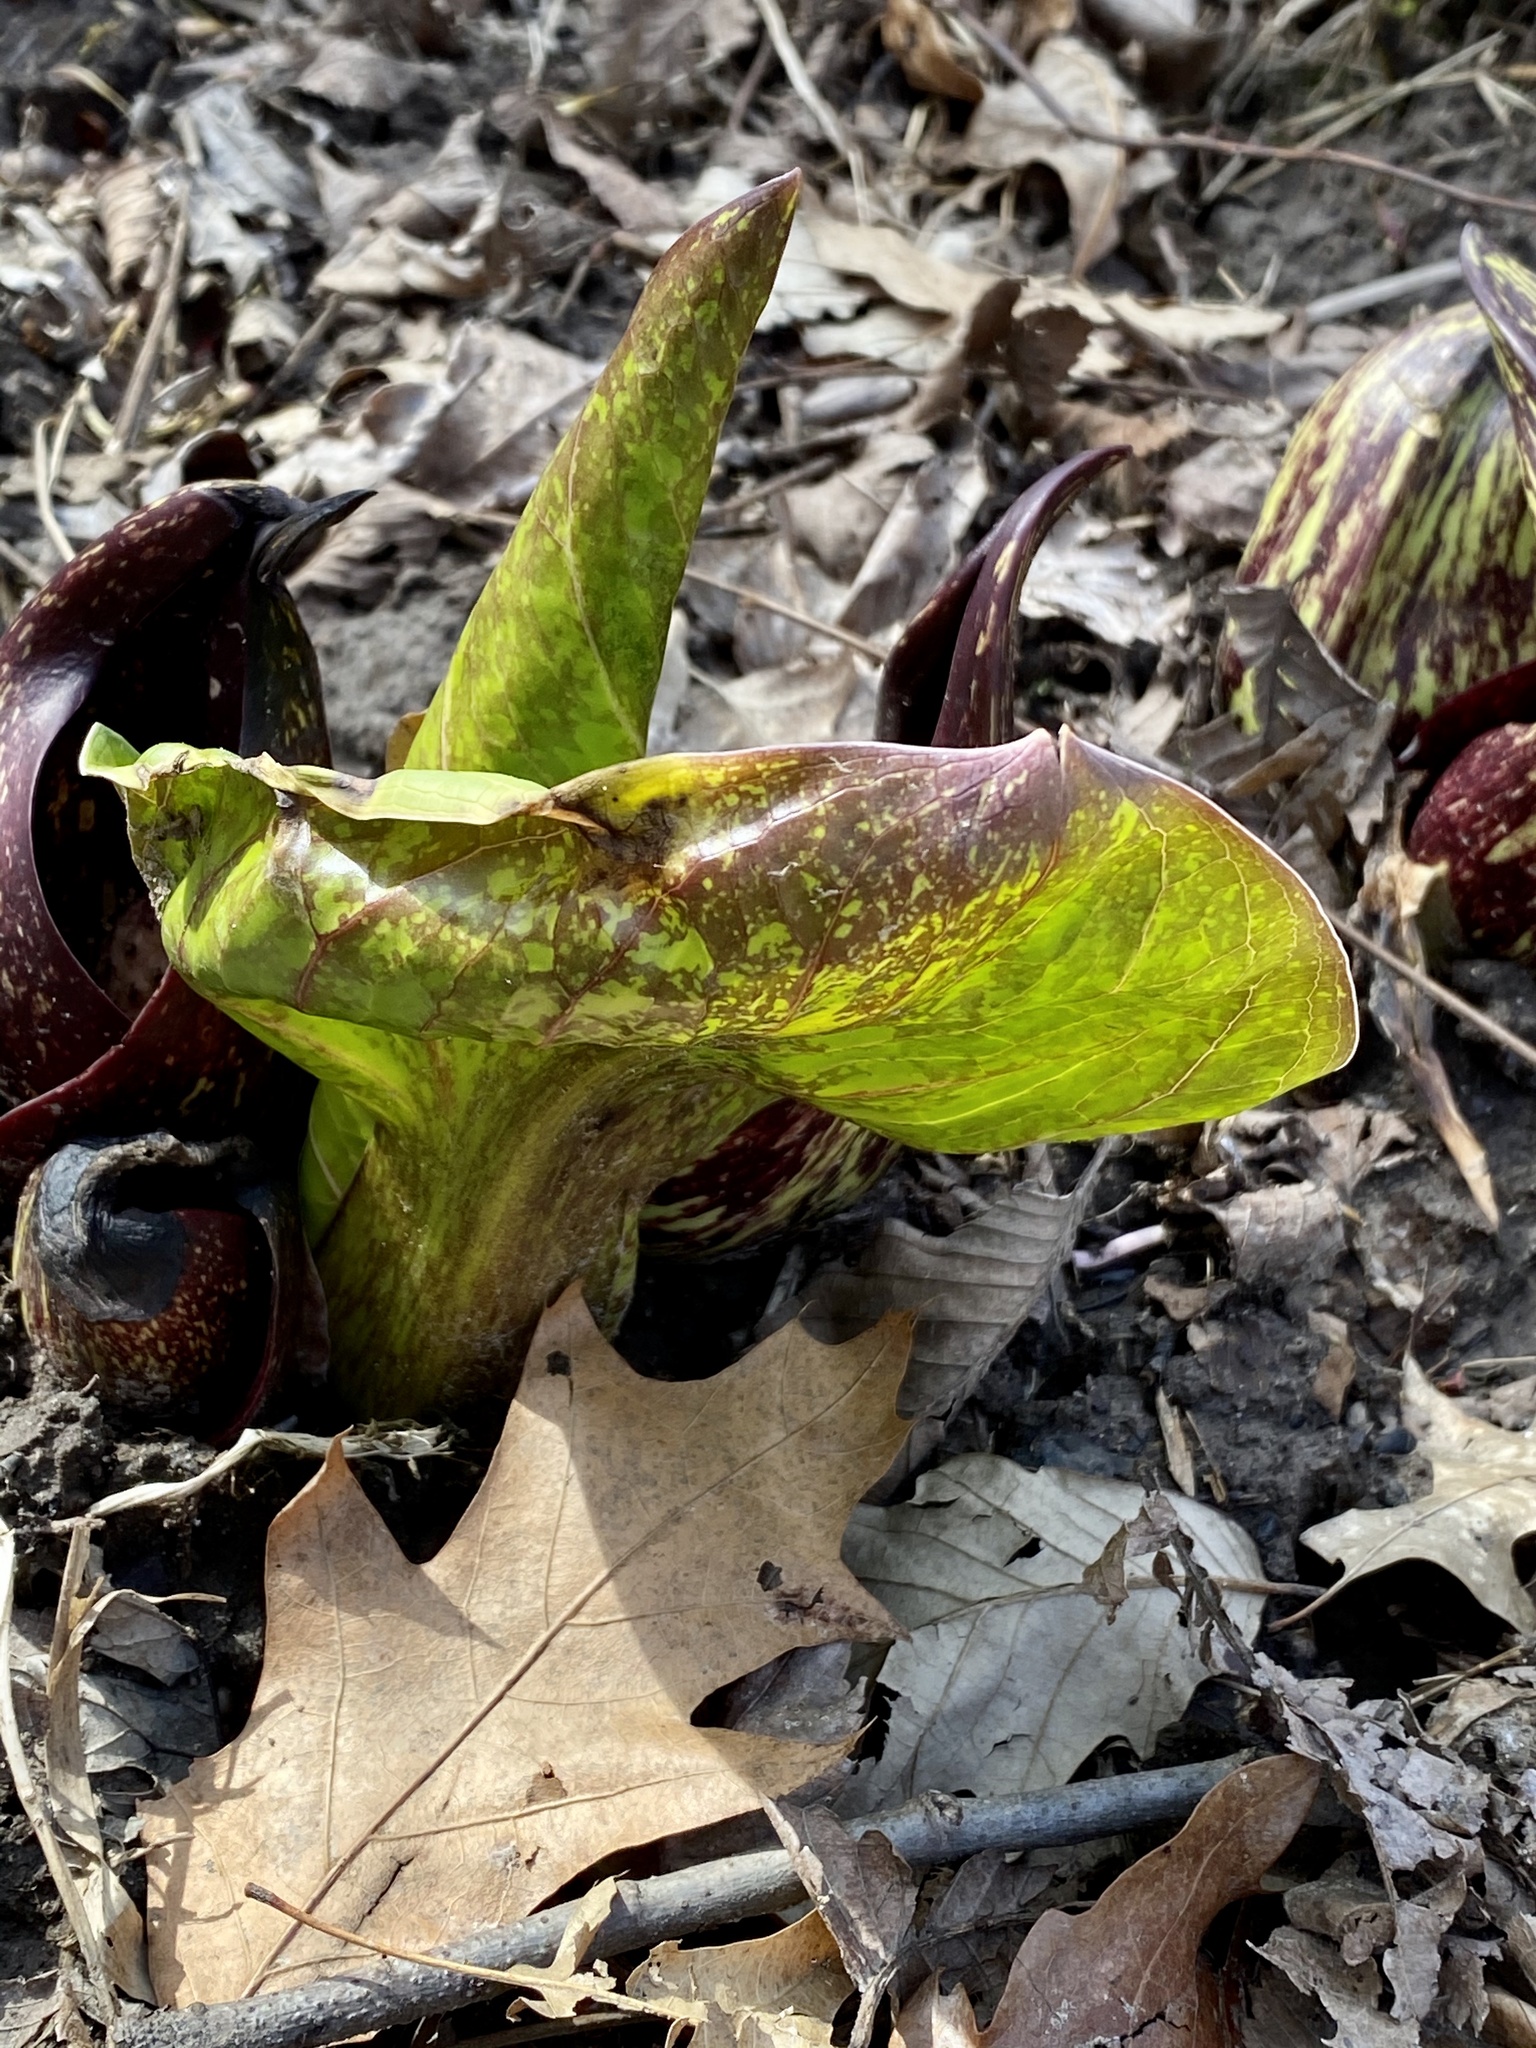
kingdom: Plantae
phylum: Tracheophyta
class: Liliopsida
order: Alismatales
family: Araceae
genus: Symplocarpus
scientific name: Symplocarpus foetidus
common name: Eastern skunk cabbage
